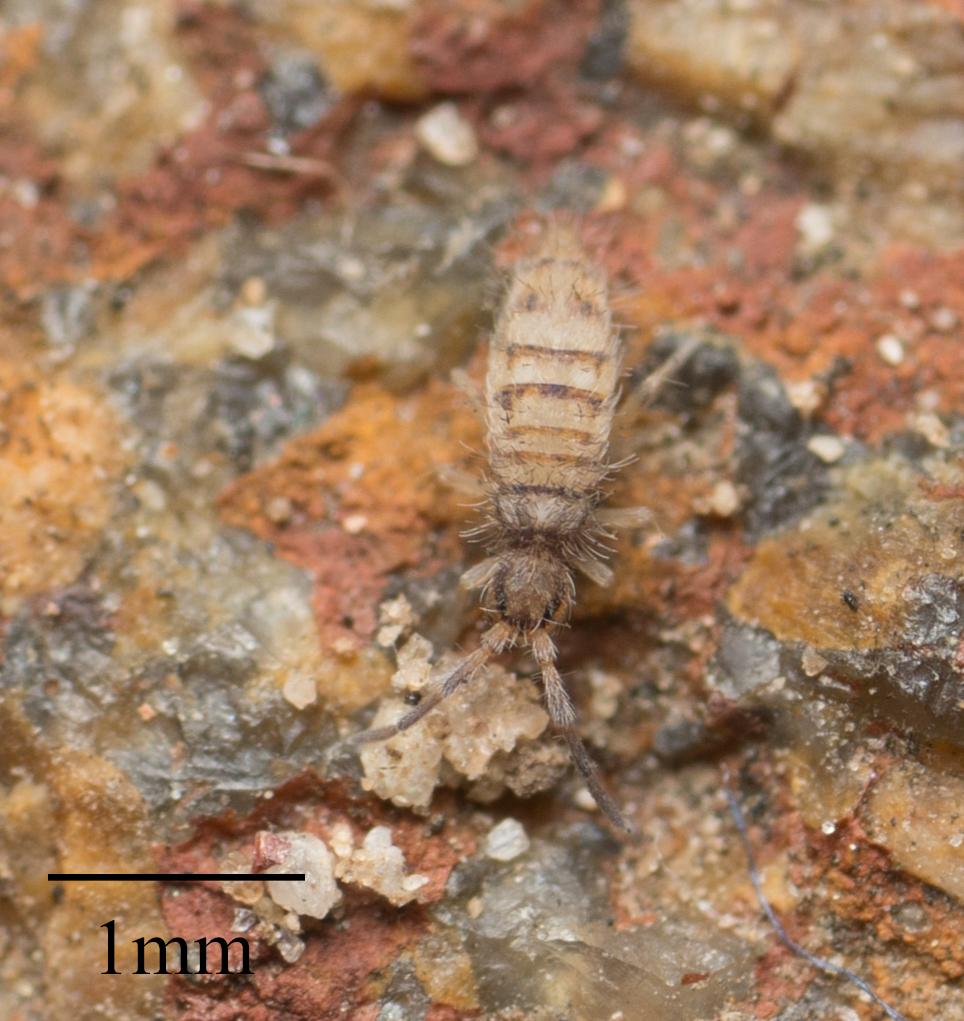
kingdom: Animalia
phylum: Arthropoda
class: Collembola
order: Entomobryomorpha
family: Entomobryidae
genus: Entomobrya
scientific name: Entomobrya atrocincta
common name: Springtail
